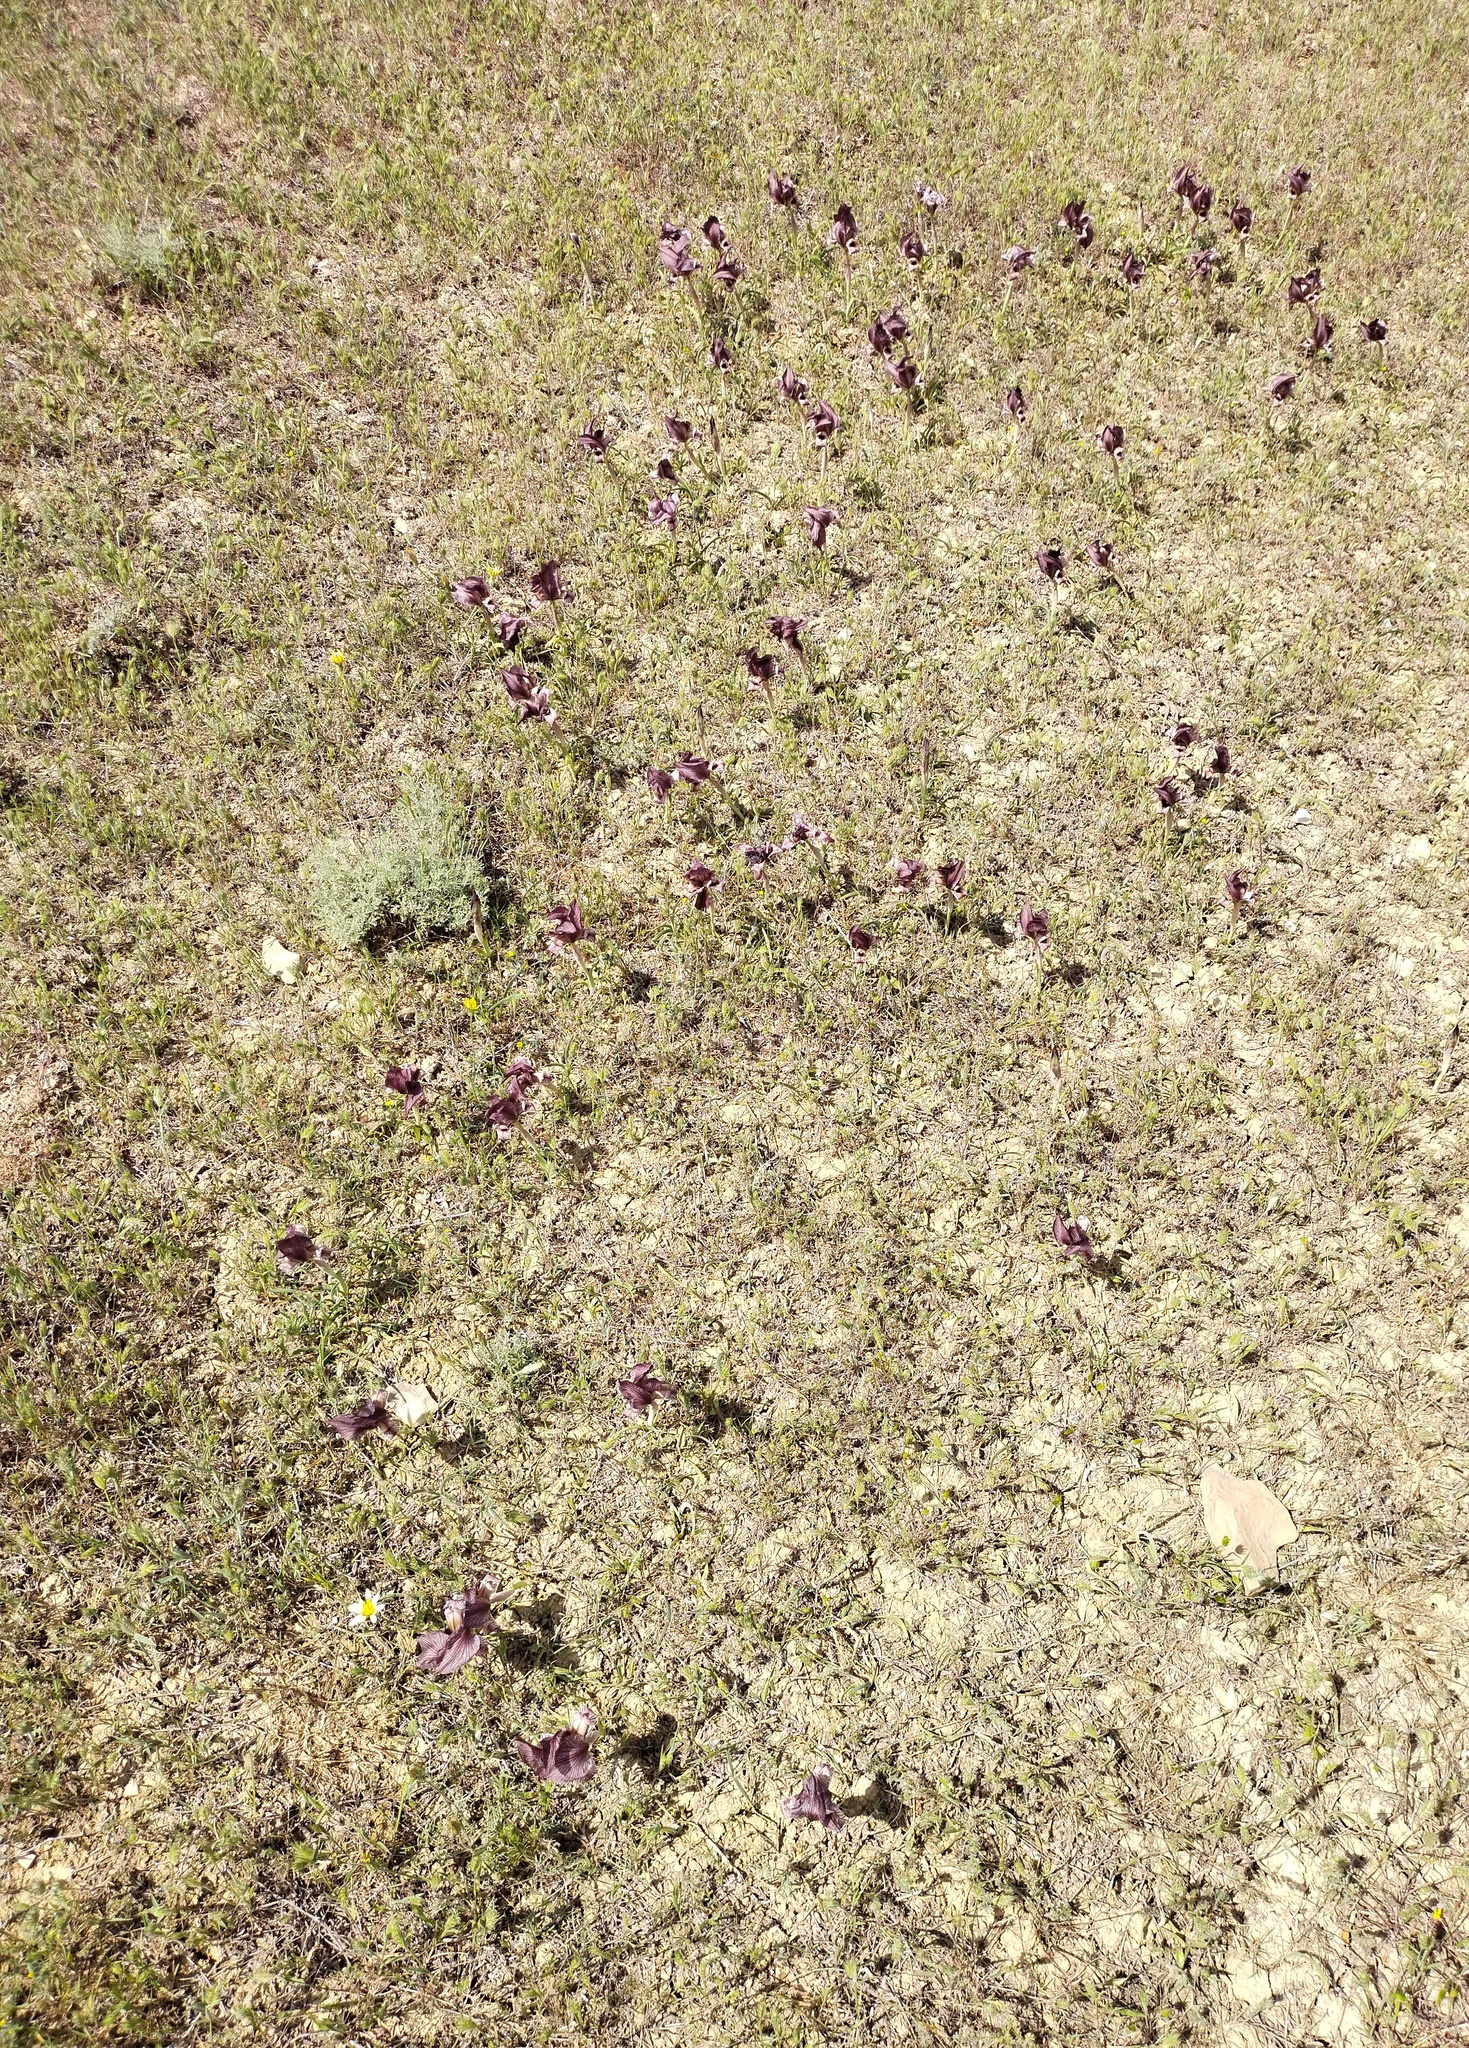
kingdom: Plantae
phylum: Tracheophyta
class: Liliopsida
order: Asparagales
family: Iridaceae
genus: Iris
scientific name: Iris acutiloba
